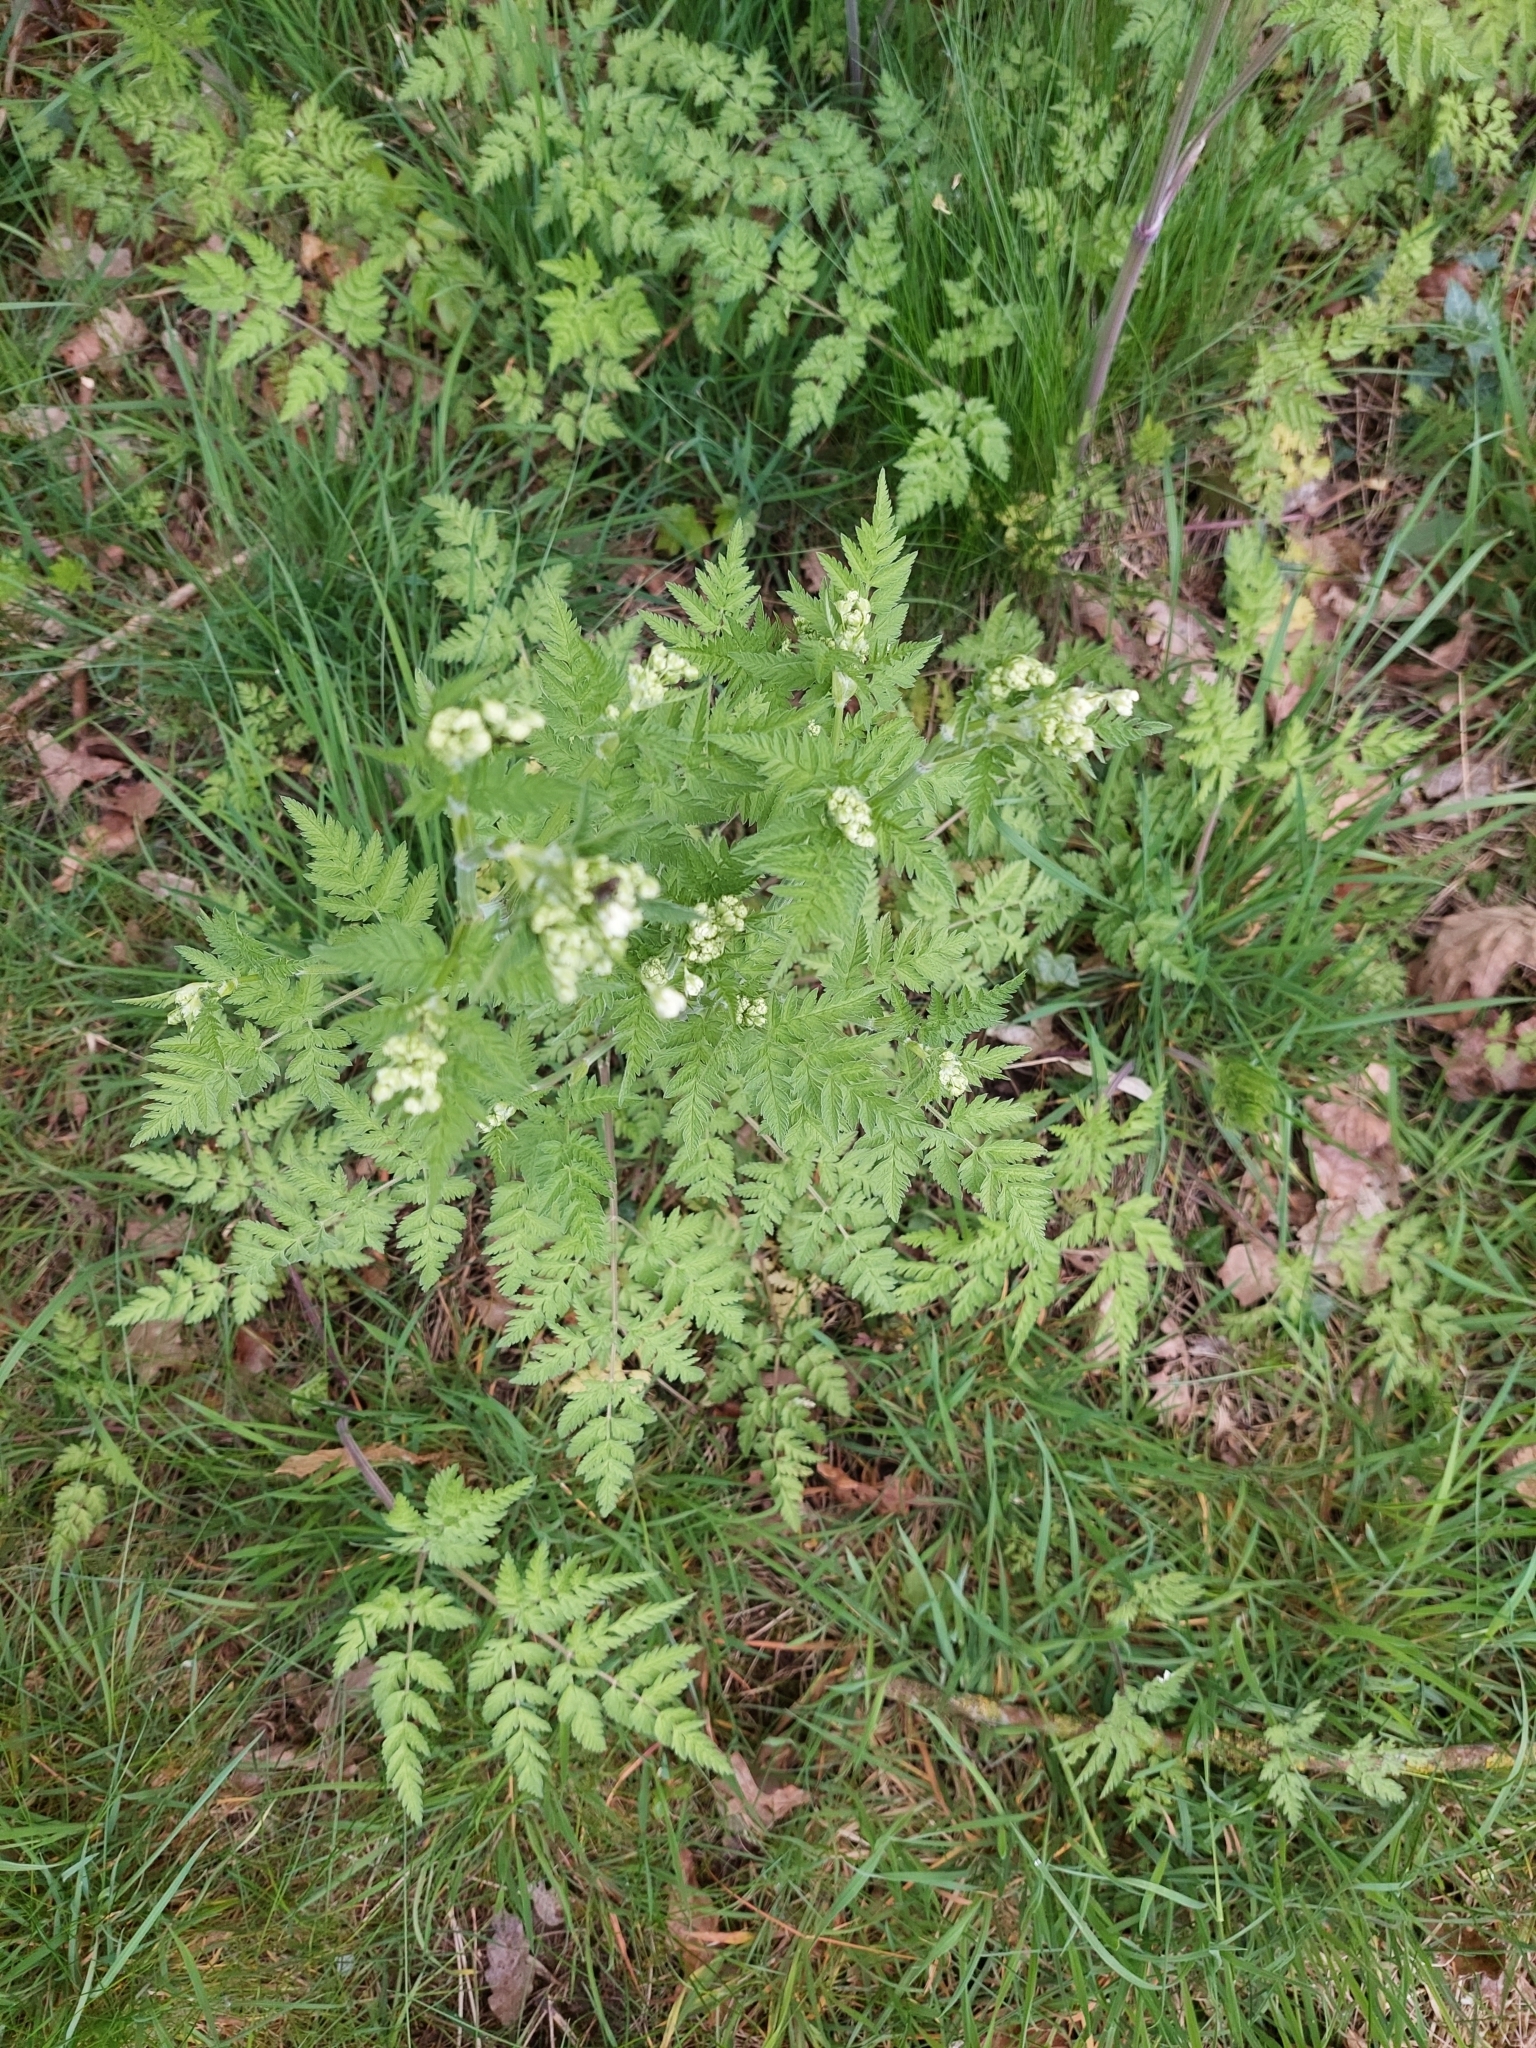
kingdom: Plantae
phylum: Tracheophyta
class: Magnoliopsida
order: Apiales
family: Apiaceae
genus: Anthriscus
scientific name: Anthriscus sylvestris
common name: Cow parsley
